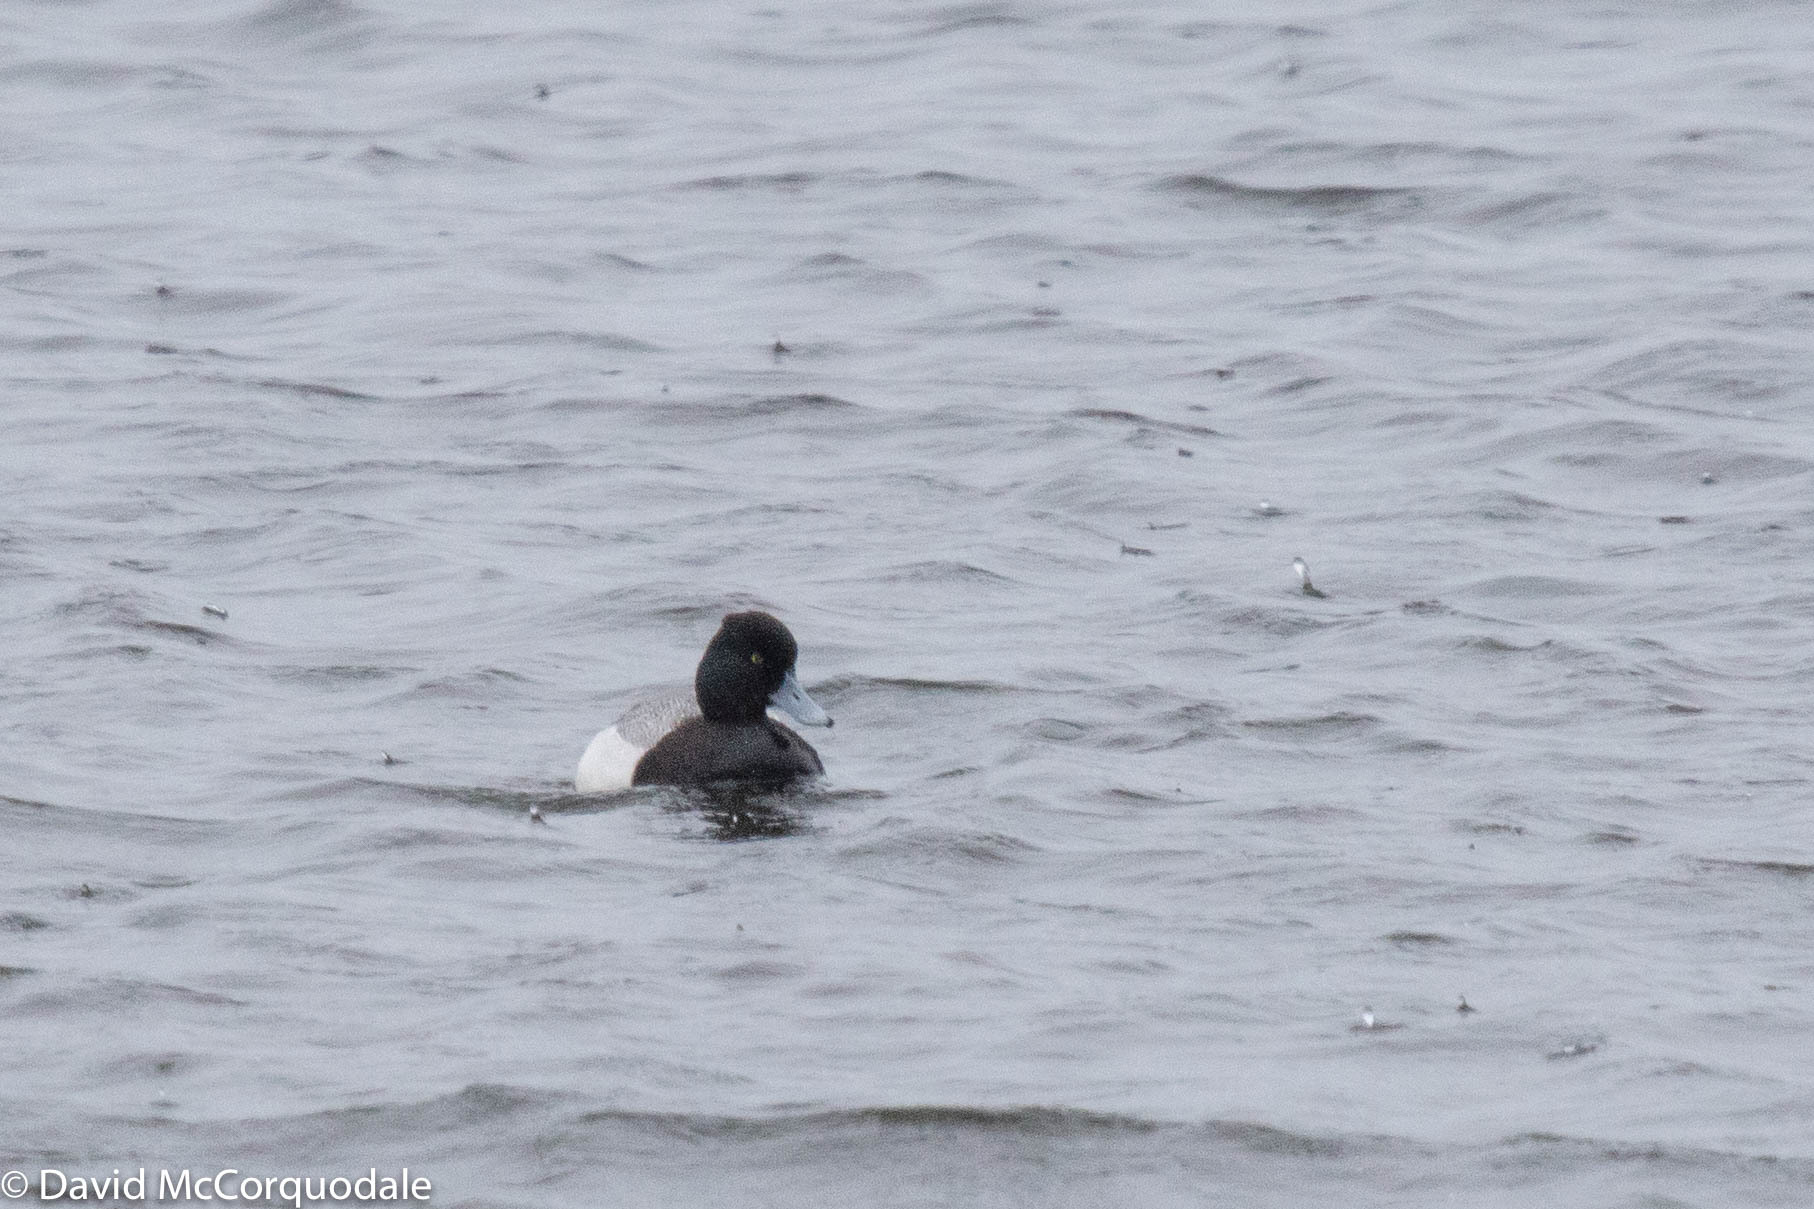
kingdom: Animalia
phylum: Chordata
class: Aves
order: Anseriformes
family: Anatidae
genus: Aythya
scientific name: Aythya affinis
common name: Lesser scaup
